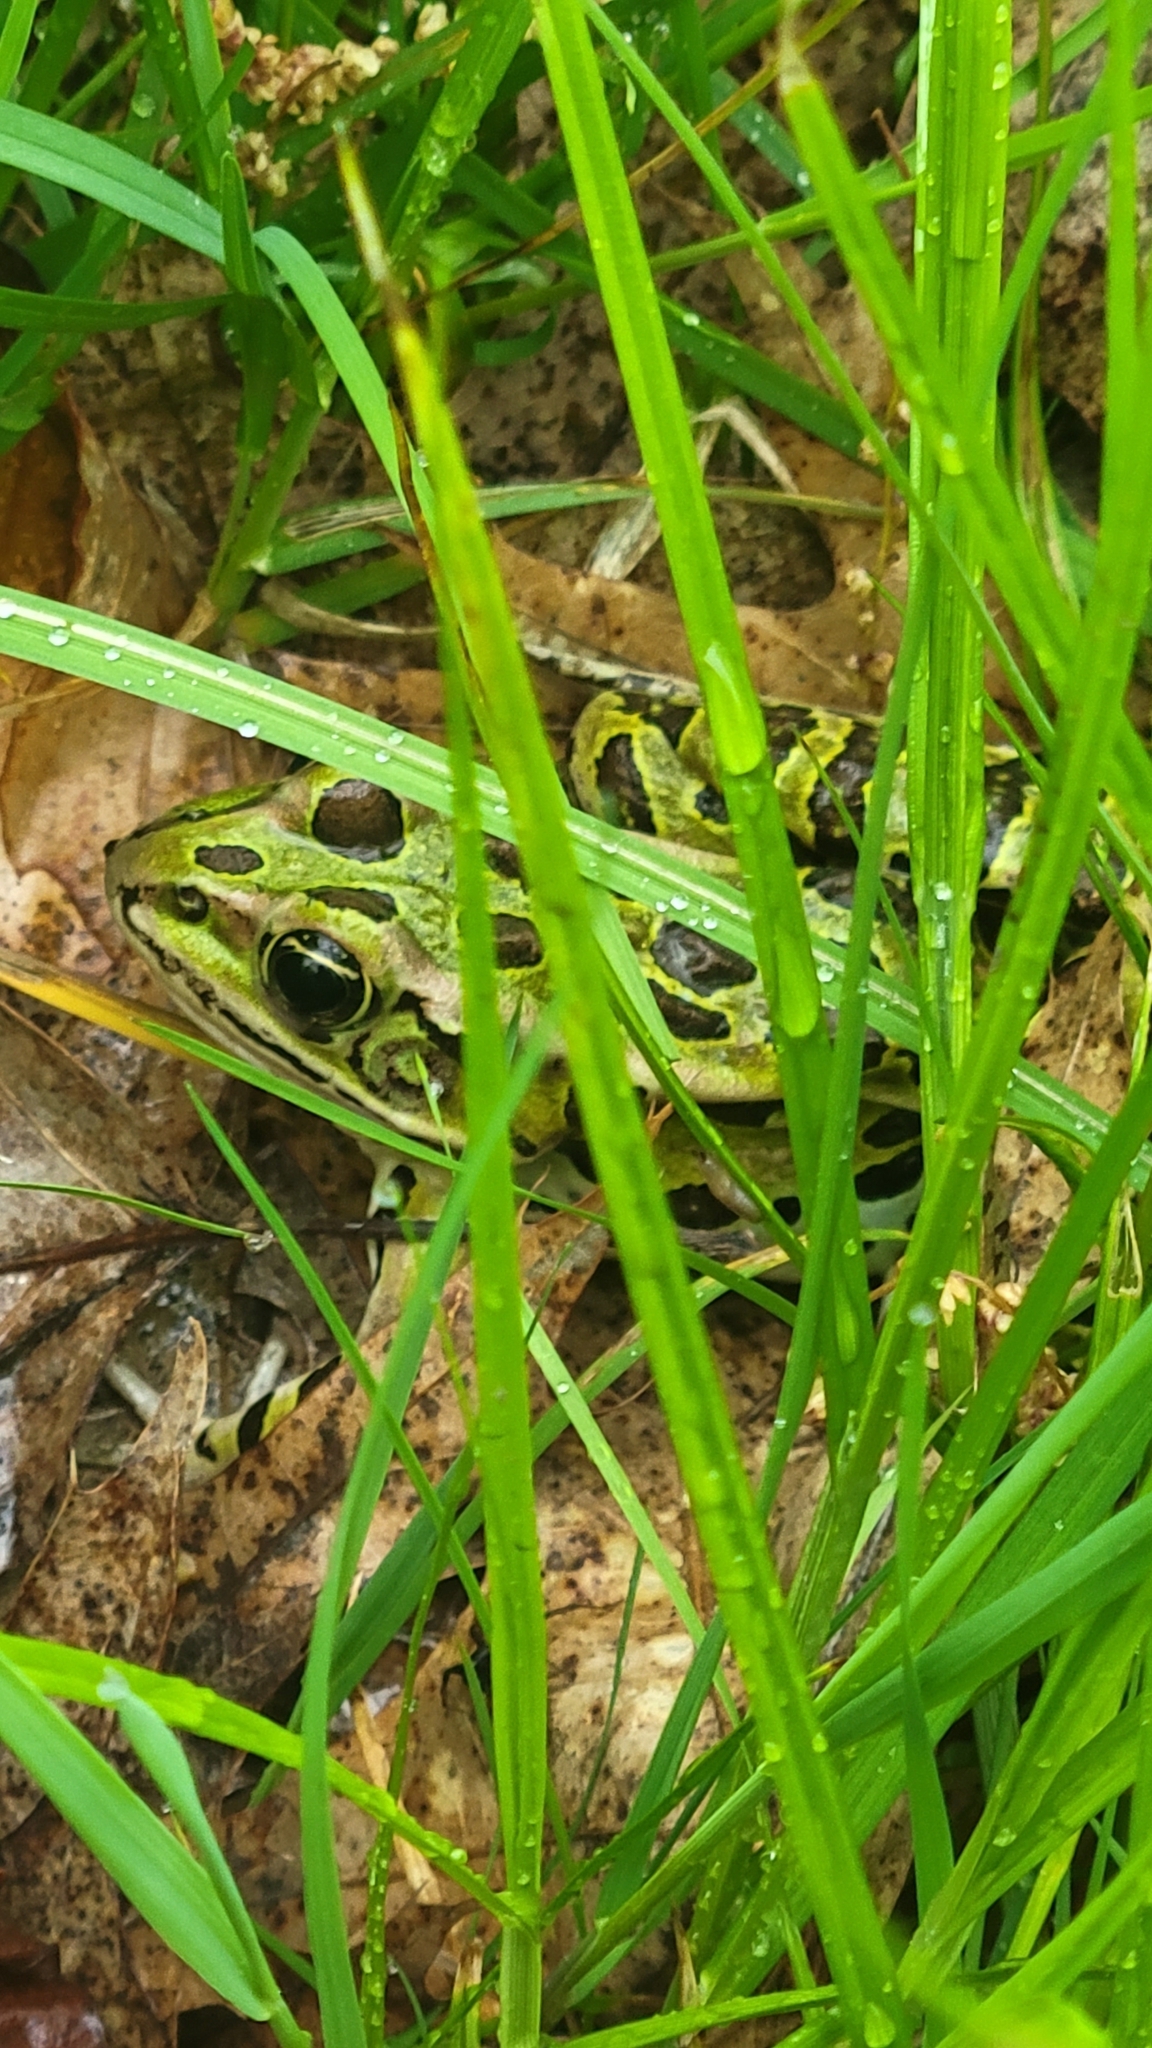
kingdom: Animalia
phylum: Chordata
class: Amphibia
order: Anura
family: Ranidae
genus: Lithobates
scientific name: Lithobates pipiens
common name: Northern leopard frog
